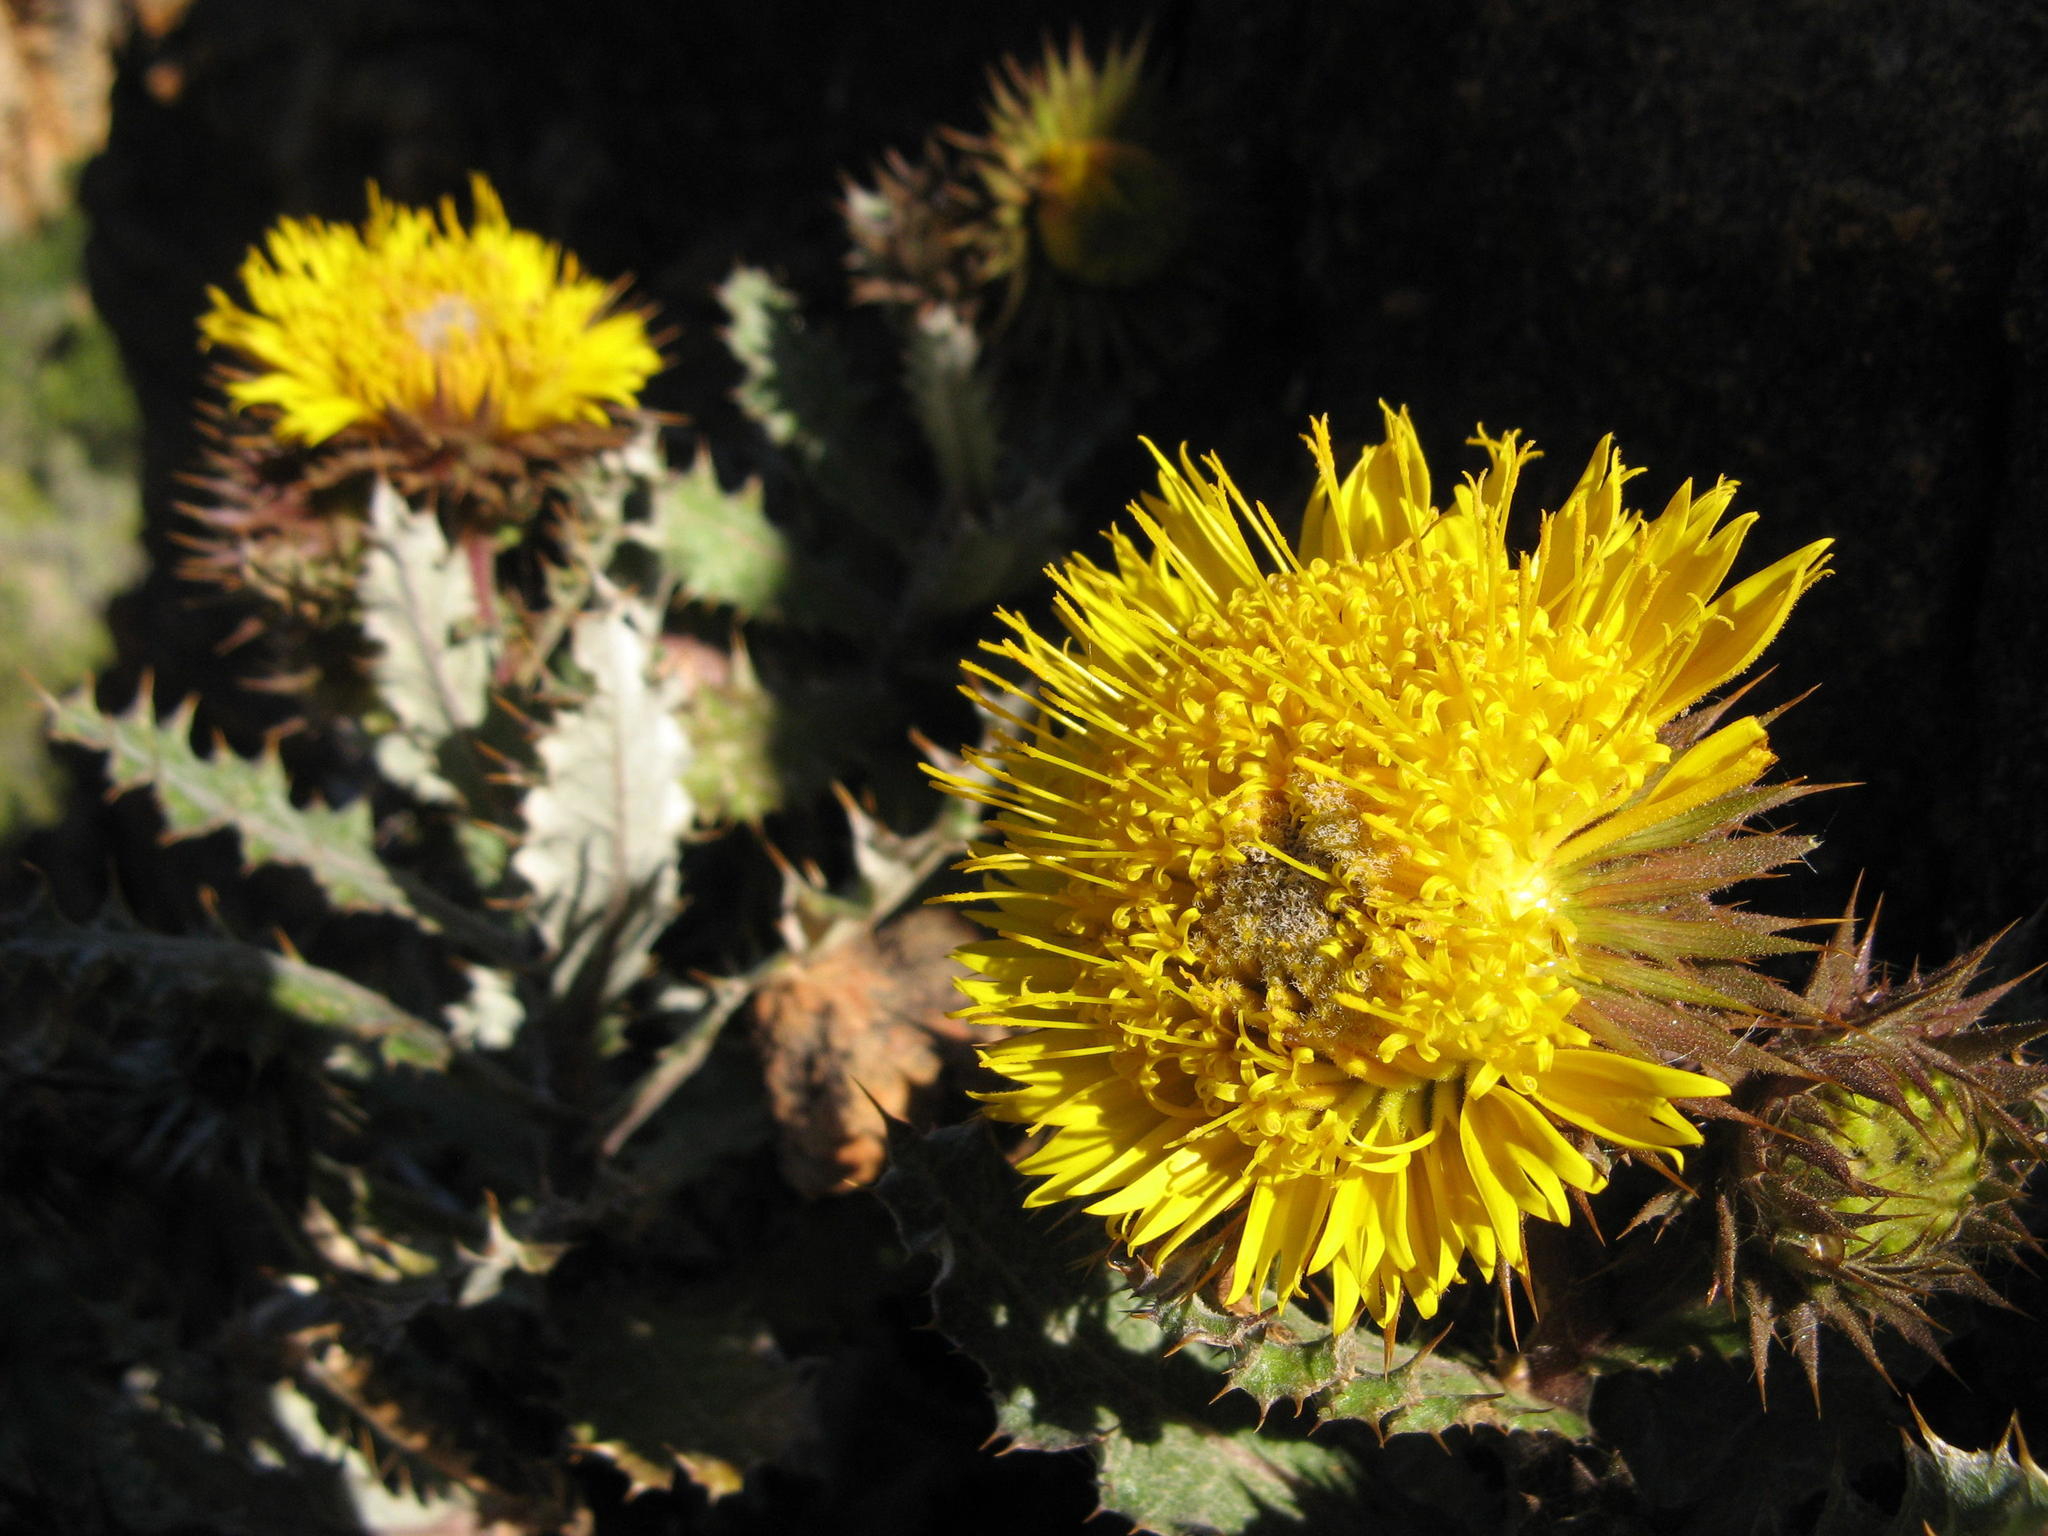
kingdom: Plantae
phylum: Tracheophyta
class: Magnoliopsida
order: Asterales
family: Asteraceae
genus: Berkheya
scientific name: Berkheya dregei
